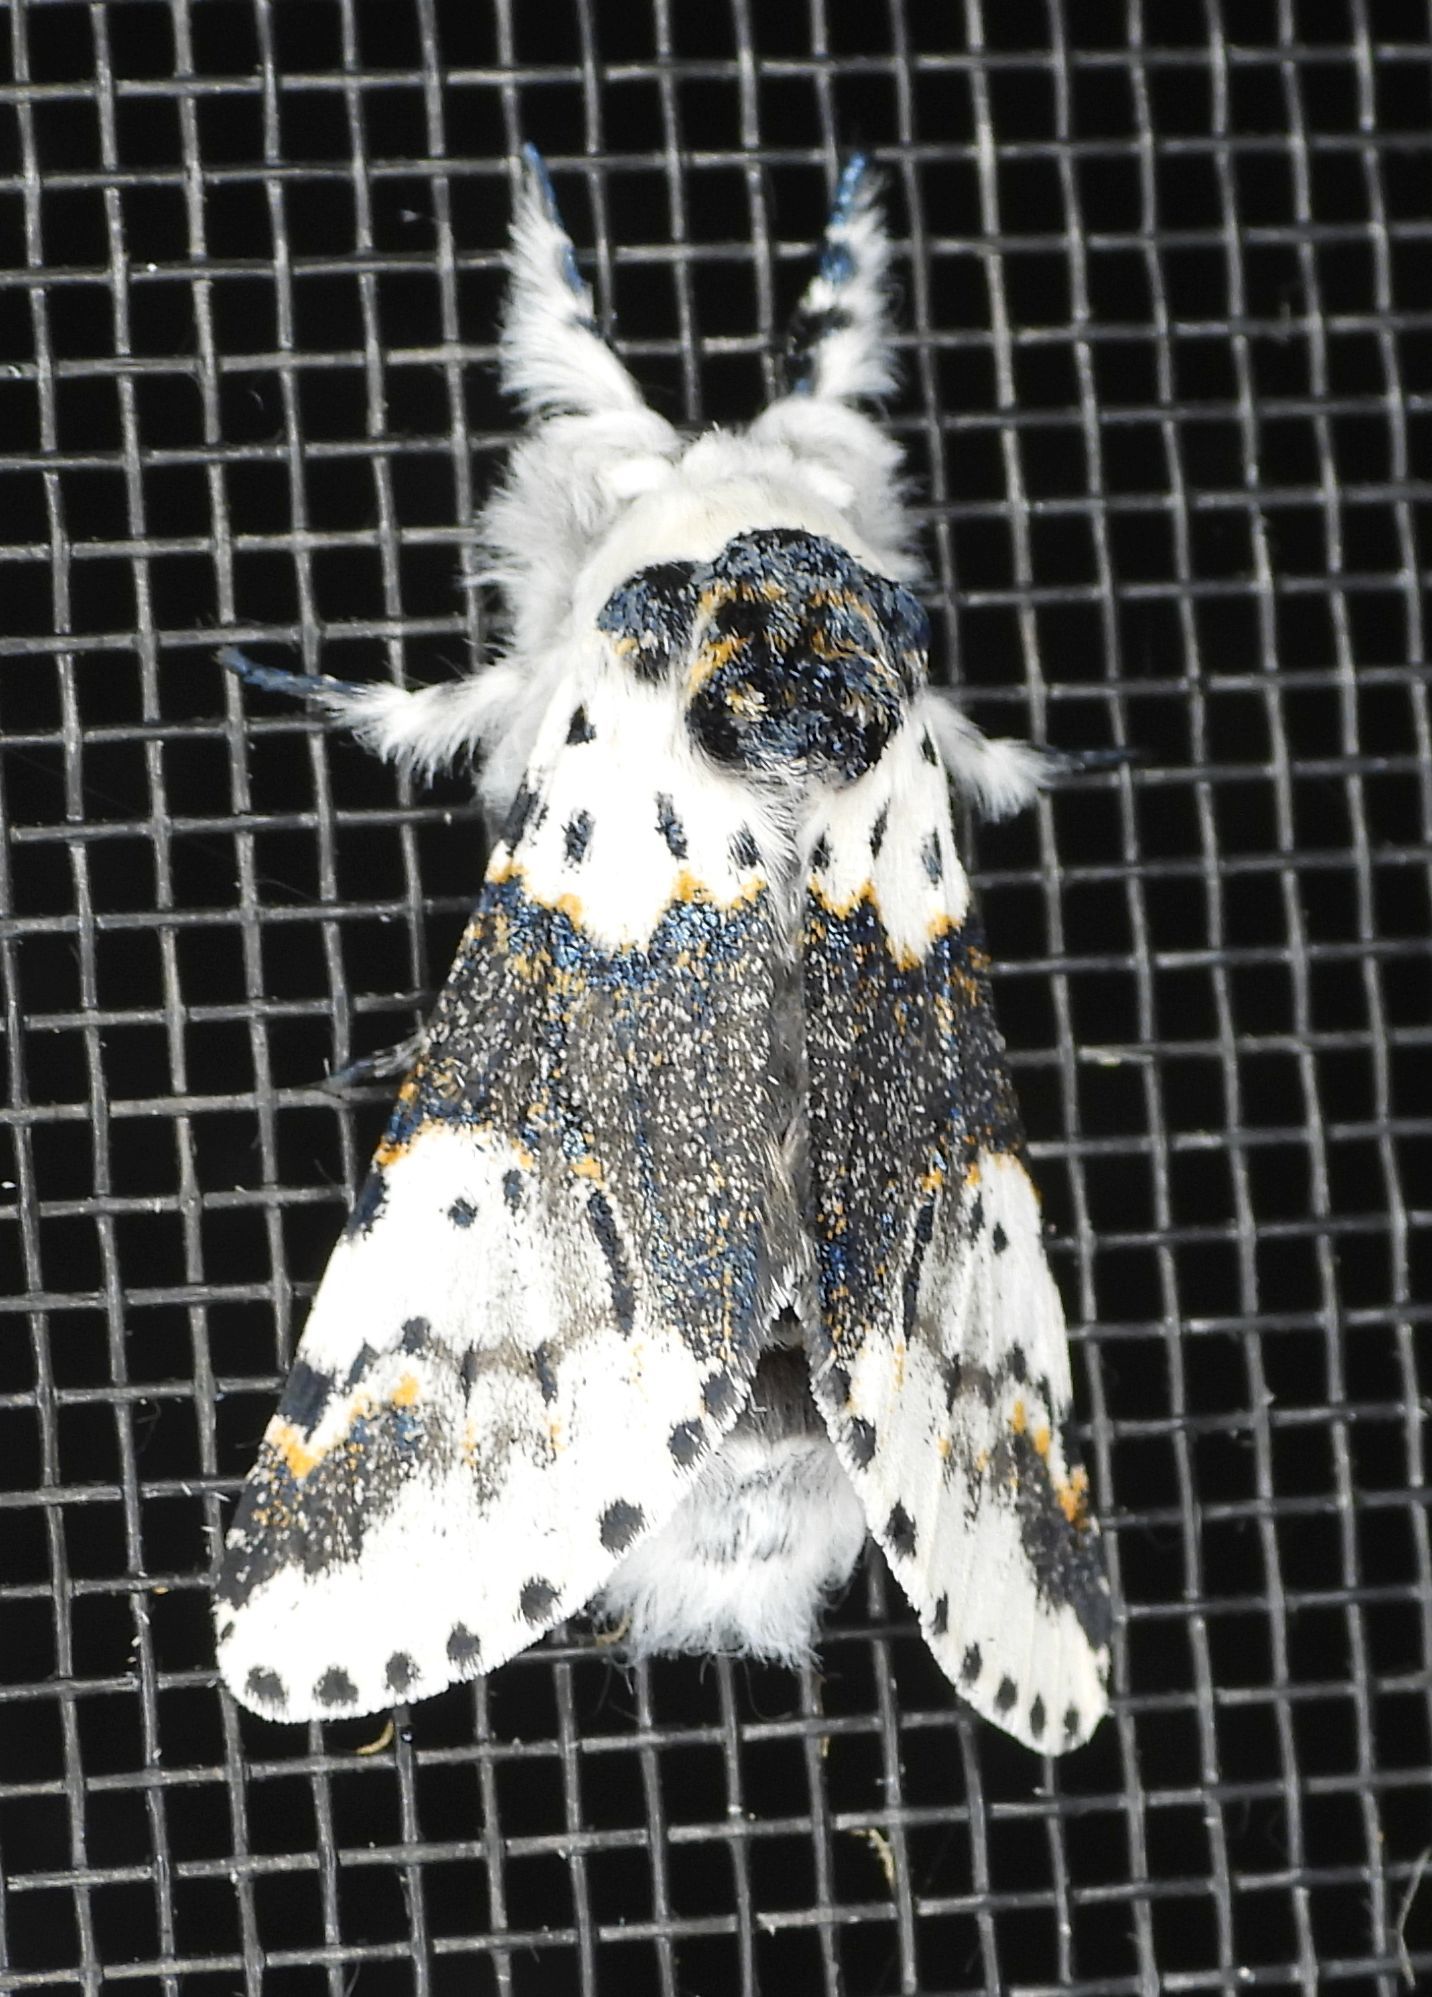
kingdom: Animalia
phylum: Arthropoda
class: Insecta
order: Lepidoptera
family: Notodontidae
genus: Furcula
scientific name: Furcula borealis
